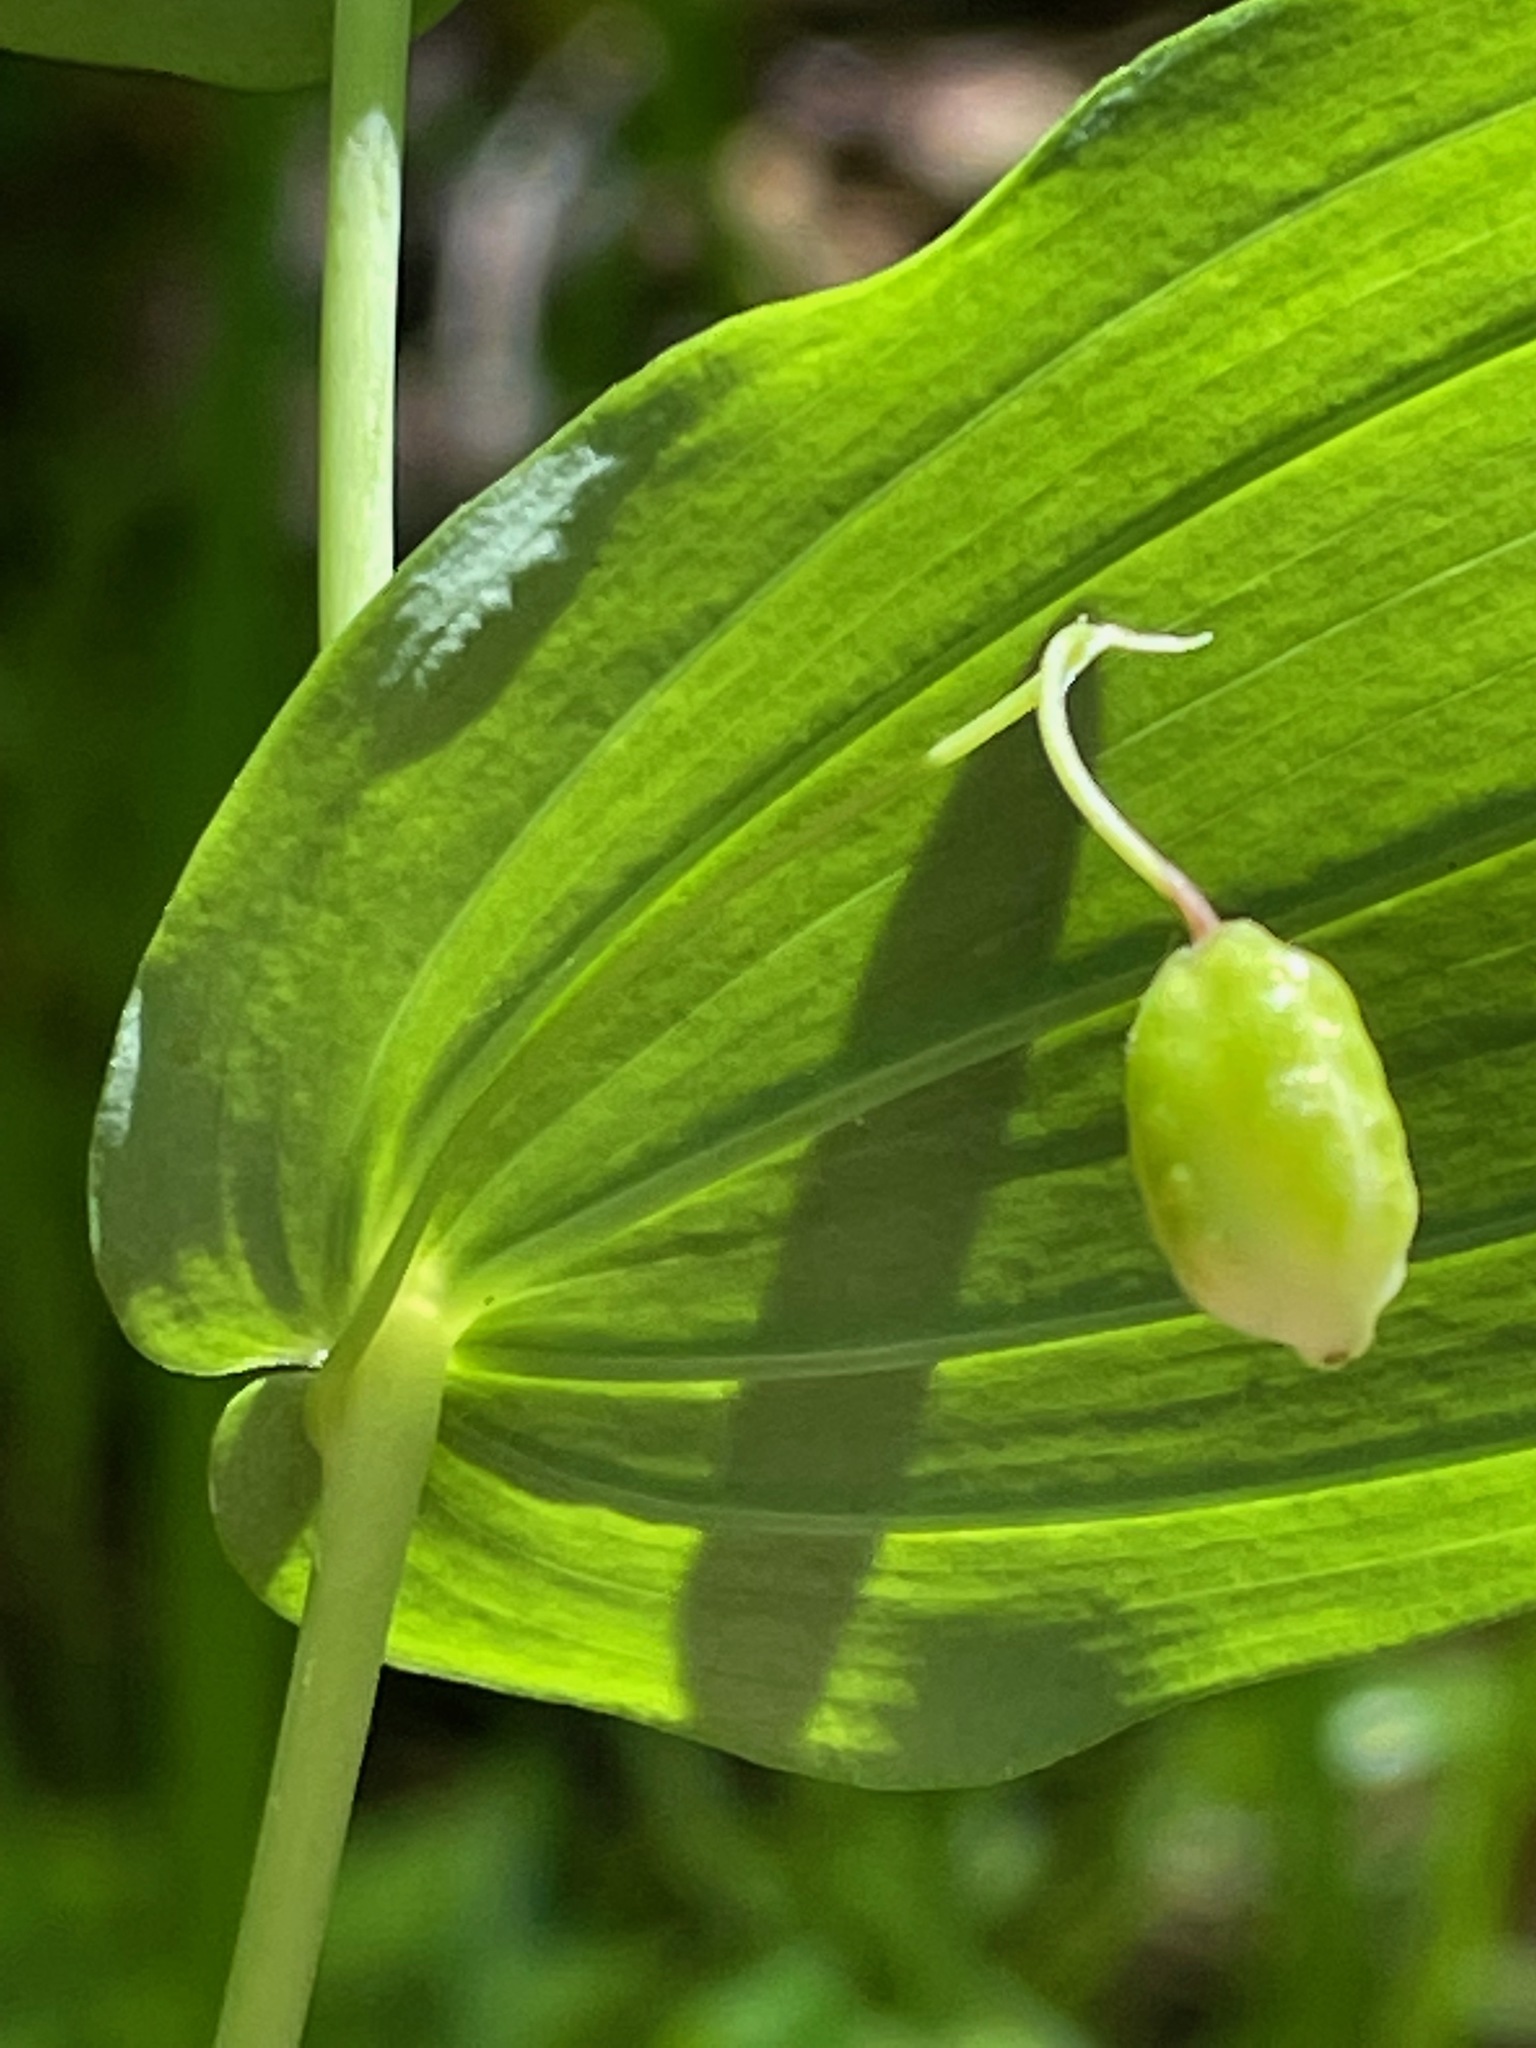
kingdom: Plantae
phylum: Tracheophyta
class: Liliopsida
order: Liliales
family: Liliaceae
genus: Streptopus
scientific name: Streptopus amplexifolius
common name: Clasp twisted stalk
